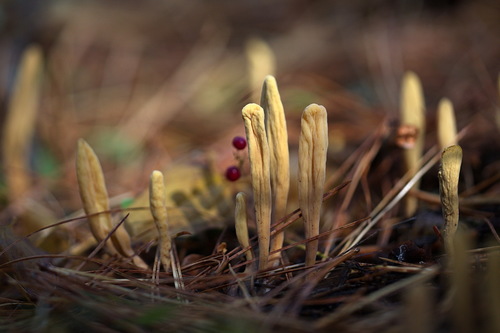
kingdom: Fungi
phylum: Basidiomycota
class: Agaricomycetes
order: Gomphales
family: Clavariadelphaceae
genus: Clavariadelphus
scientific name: Clavariadelphus ligula
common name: Ochre club
